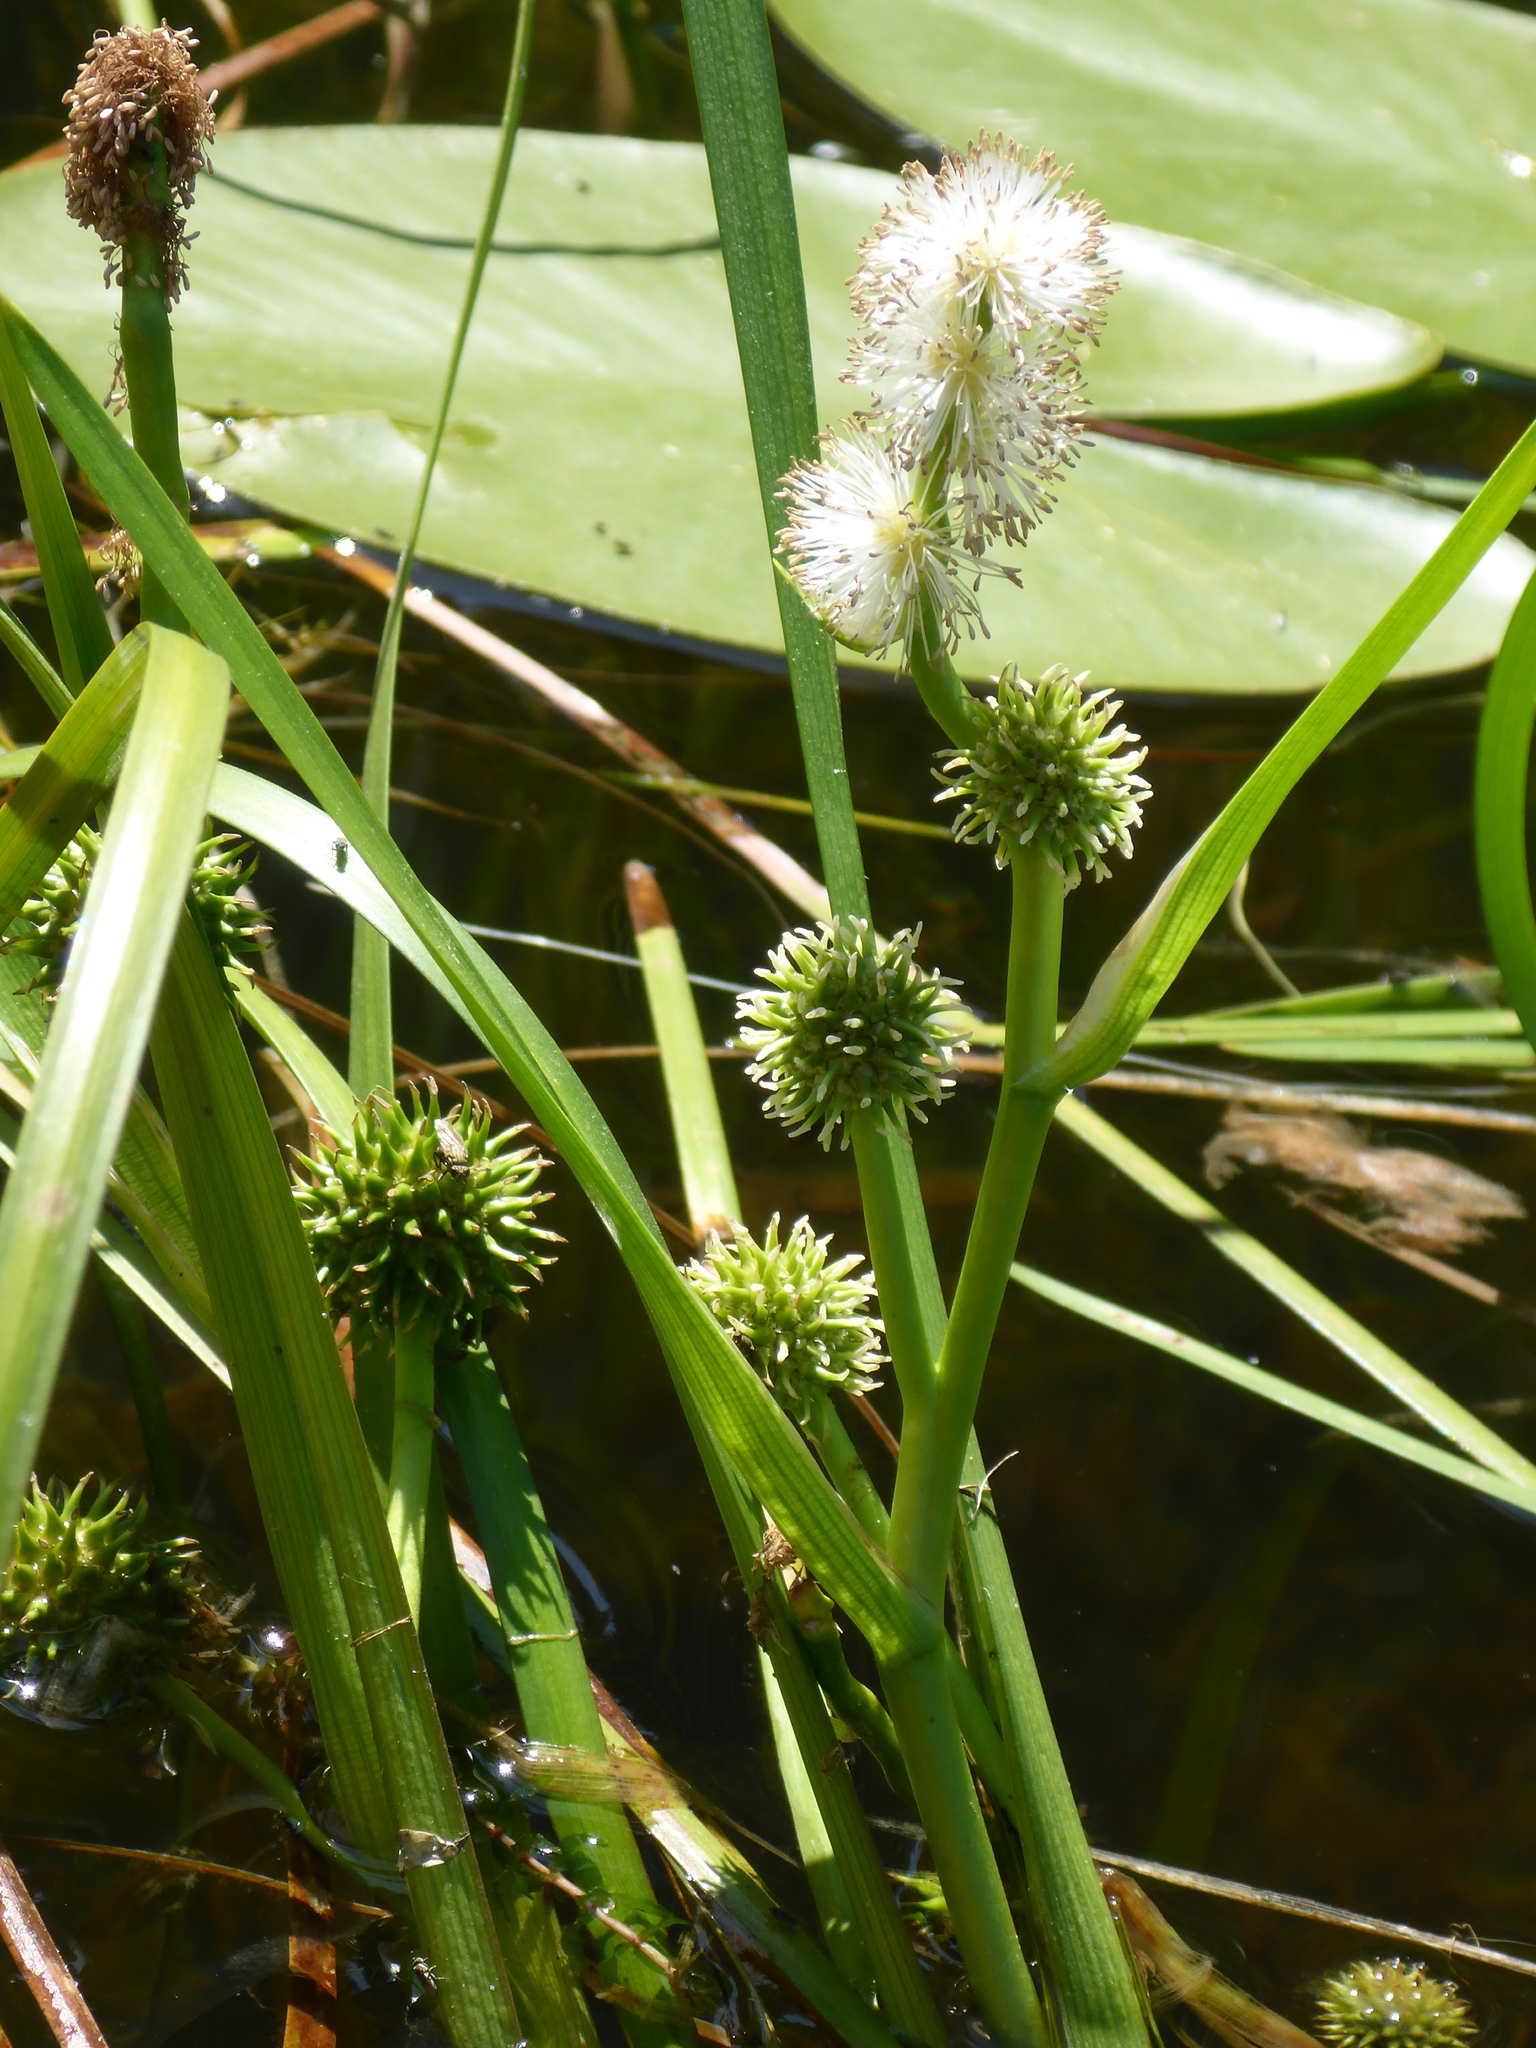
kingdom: Plantae
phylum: Tracheophyta
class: Liliopsida
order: Poales
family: Typhaceae
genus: Sparganium
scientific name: Sparganium emersum
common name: Unbranched bur-reed
